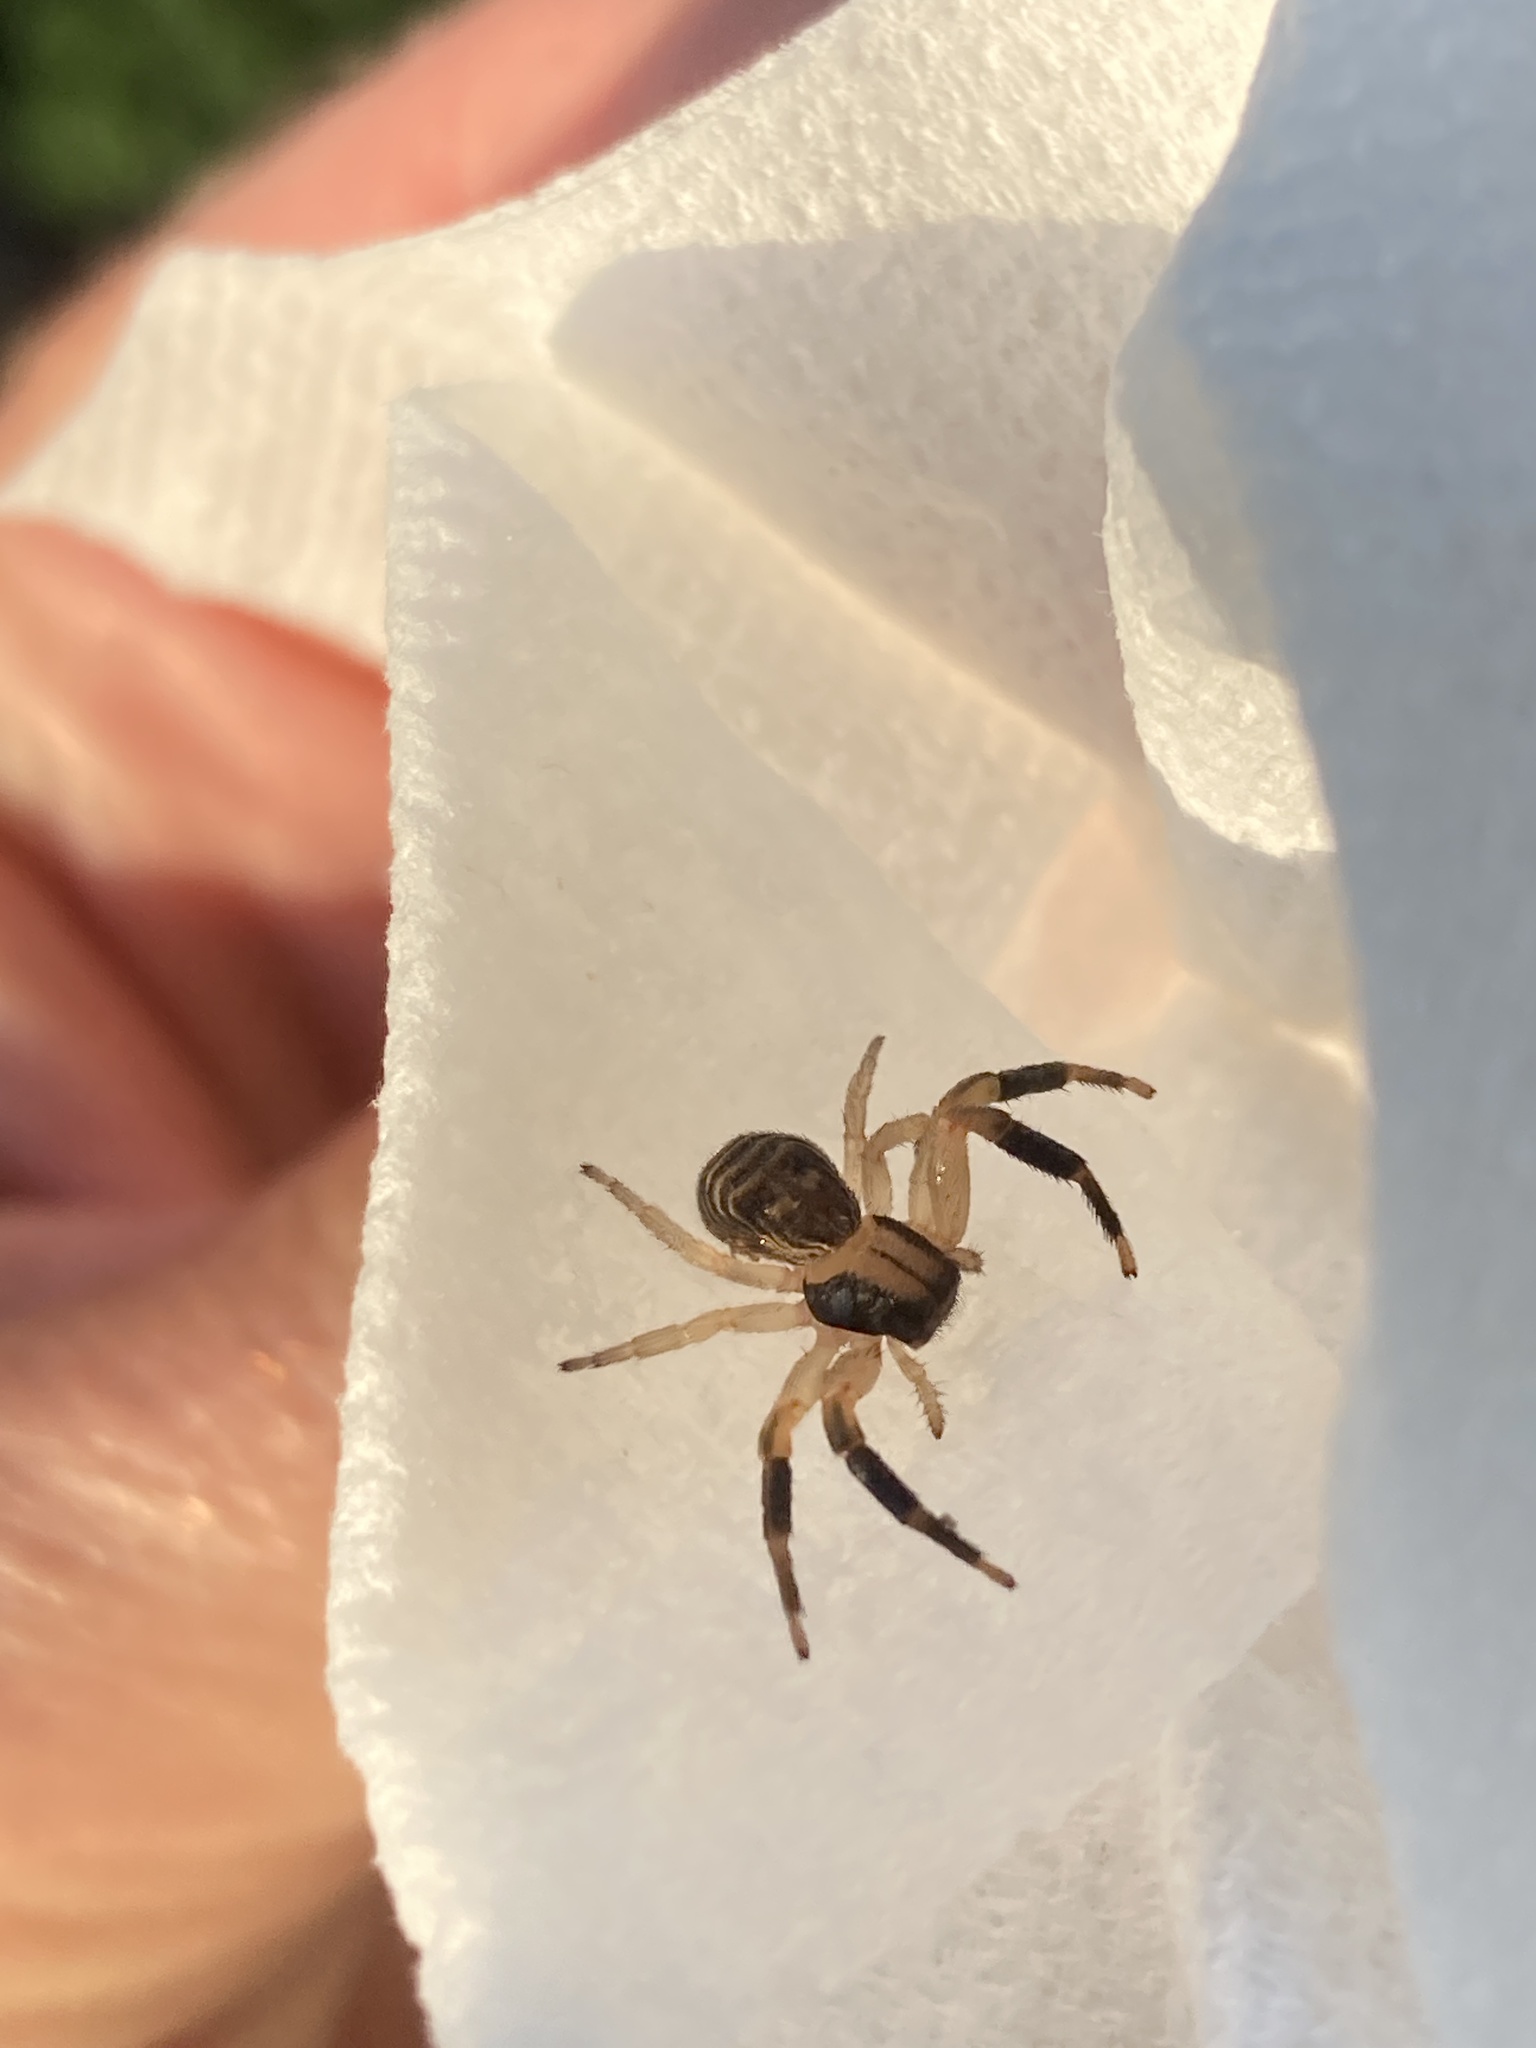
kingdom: Animalia
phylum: Arthropoda
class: Arachnida
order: Araneae
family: Thomisidae
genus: Xysticus
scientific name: Xysticus texanus
